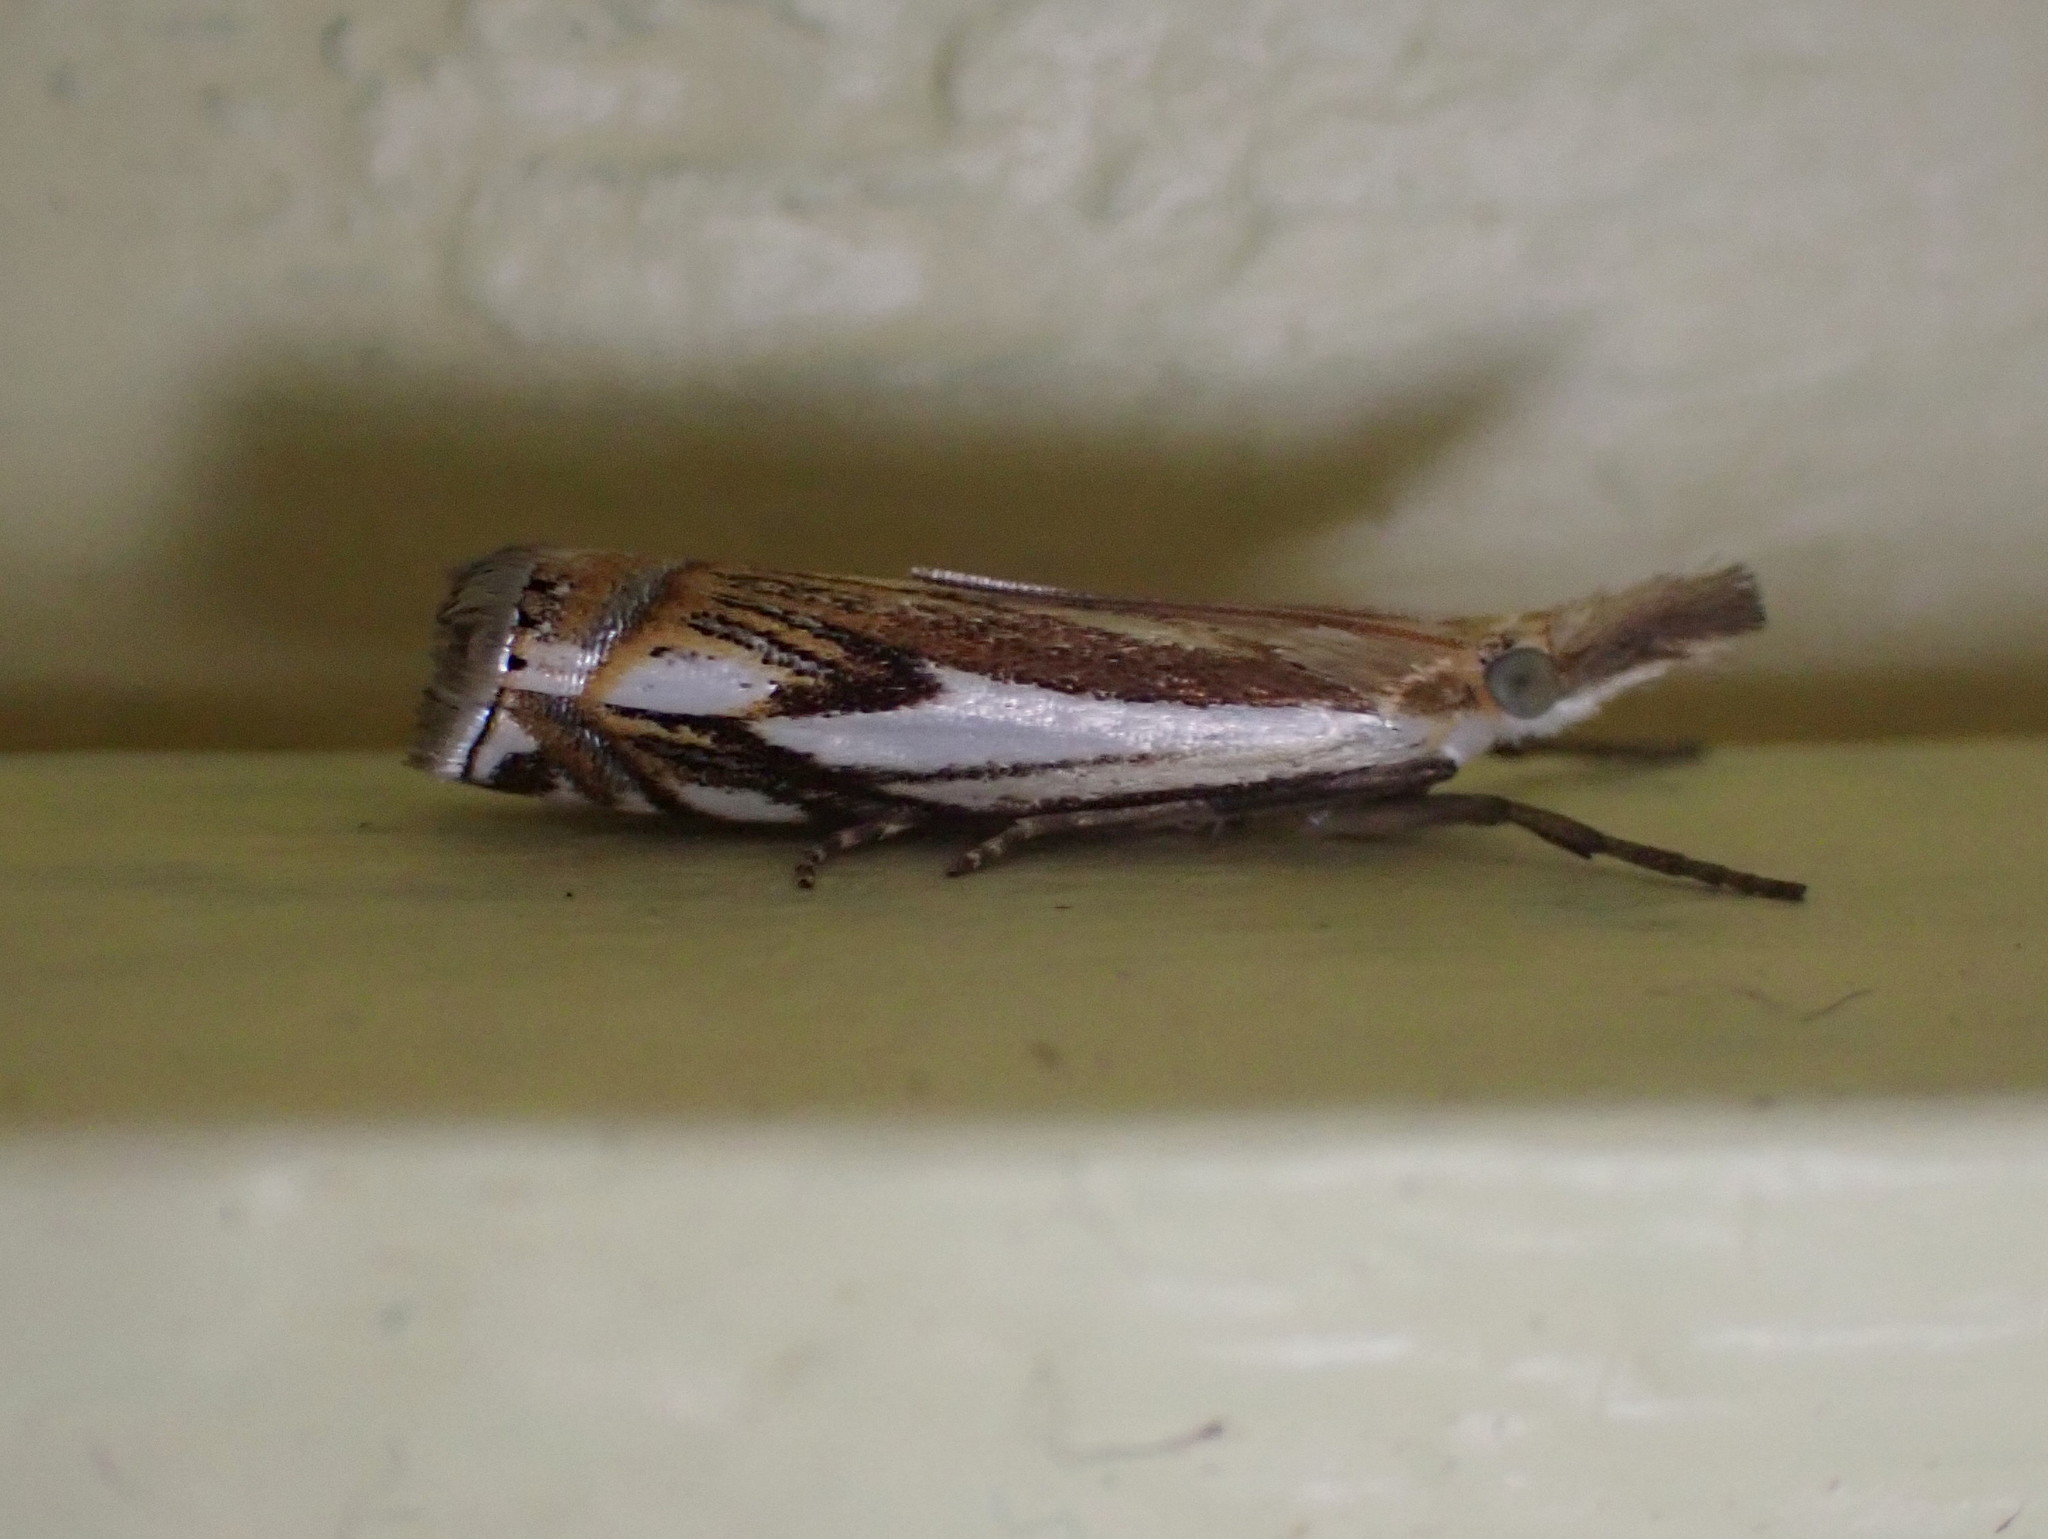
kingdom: Animalia
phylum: Arthropoda
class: Insecta
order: Lepidoptera
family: Crambidae
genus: Crambus
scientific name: Crambus agitatellus
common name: Double-banded grass-veneer
